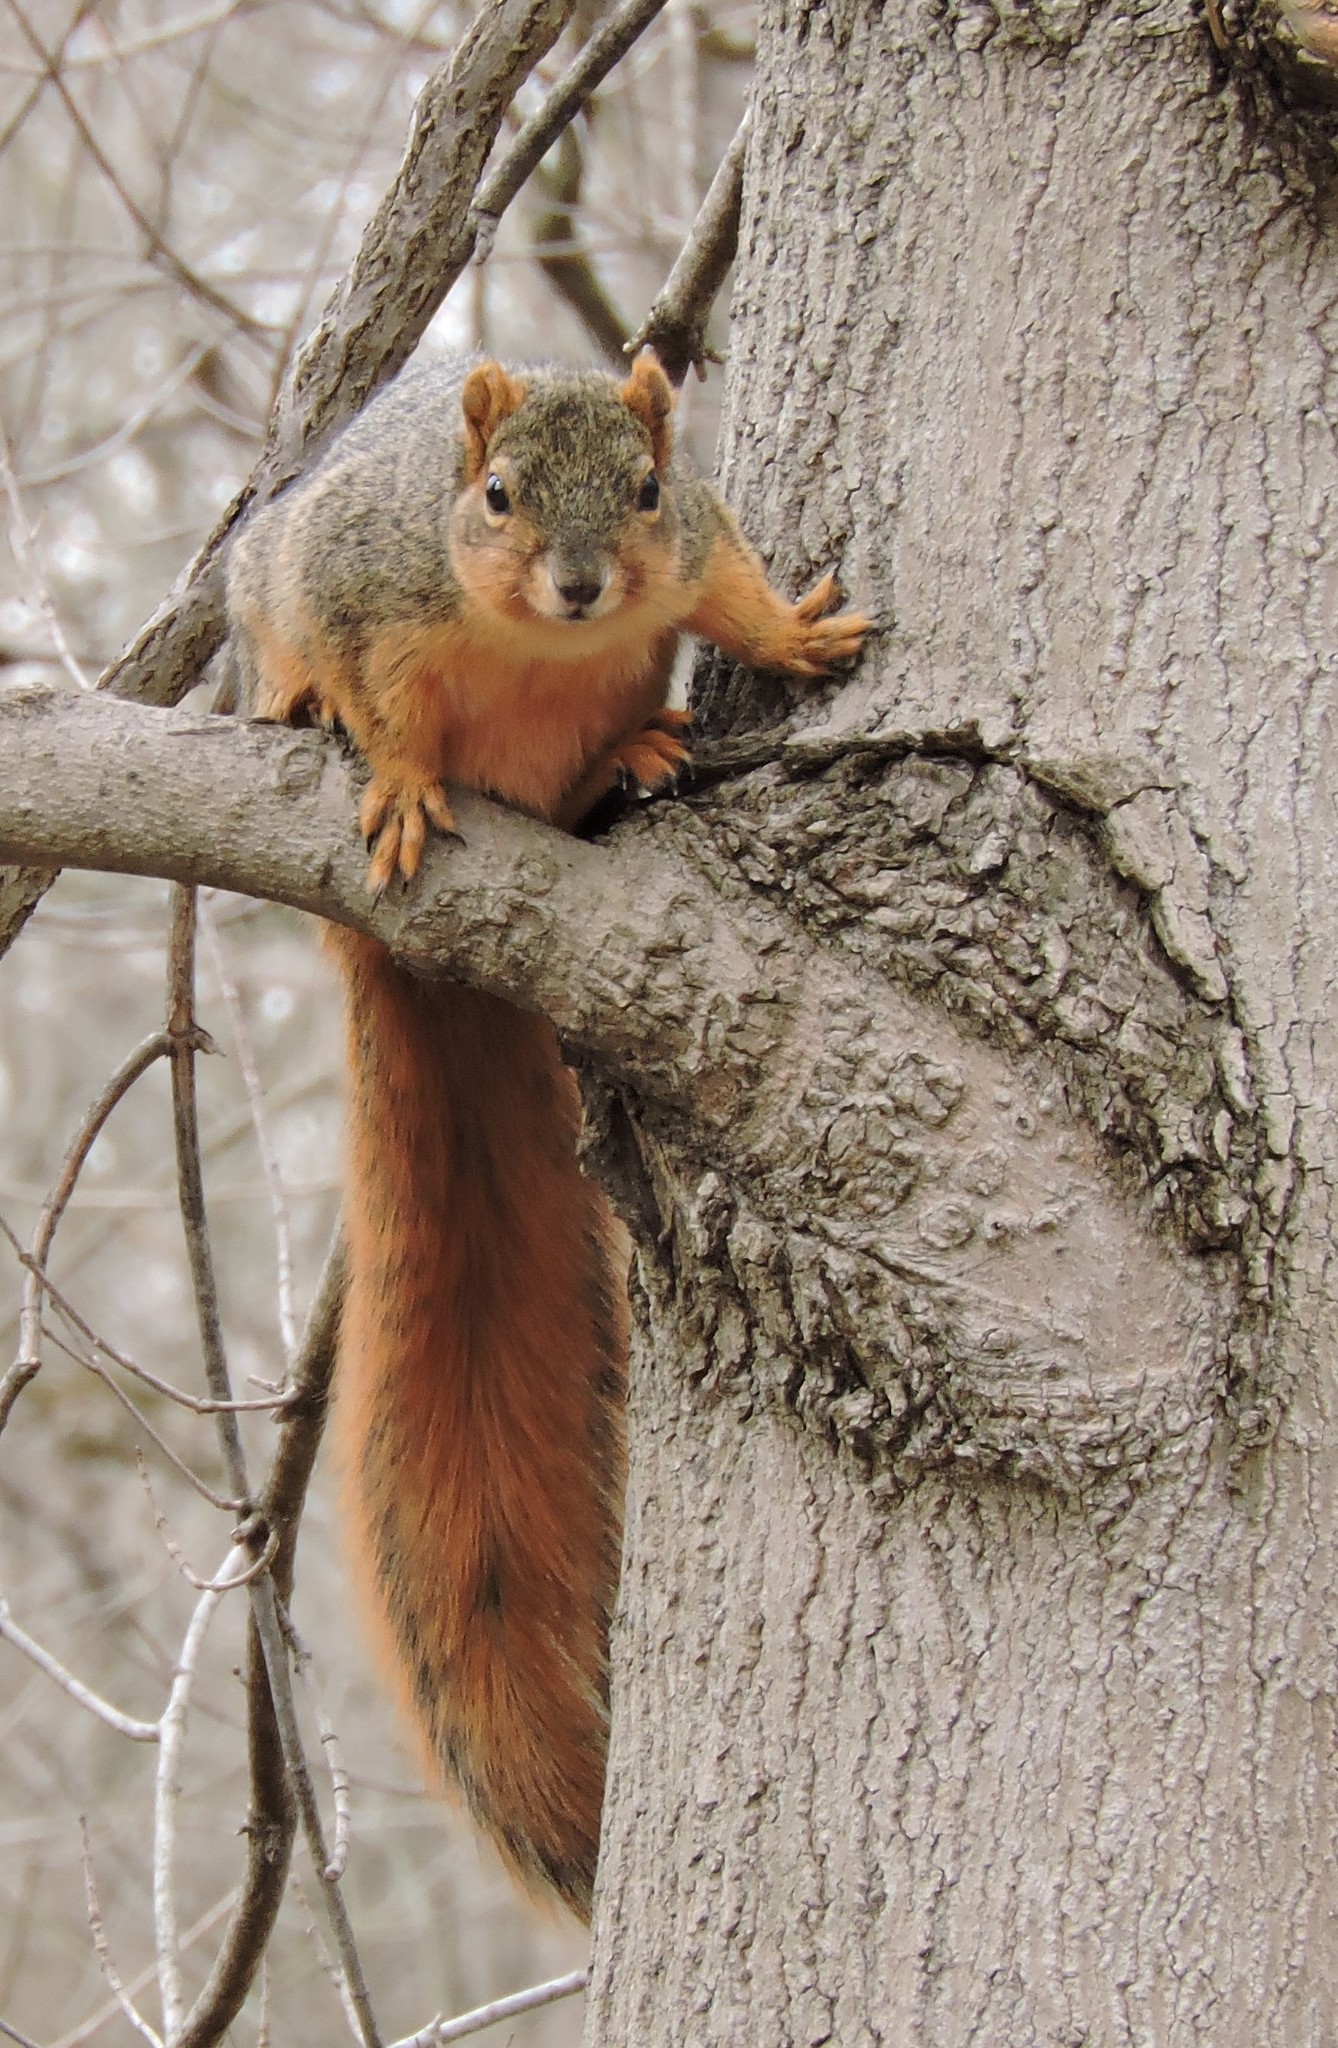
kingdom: Animalia
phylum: Chordata
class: Mammalia
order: Rodentia
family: Sciuridae
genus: Sciurus
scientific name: Sciurus niger
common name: Fox squirrel
